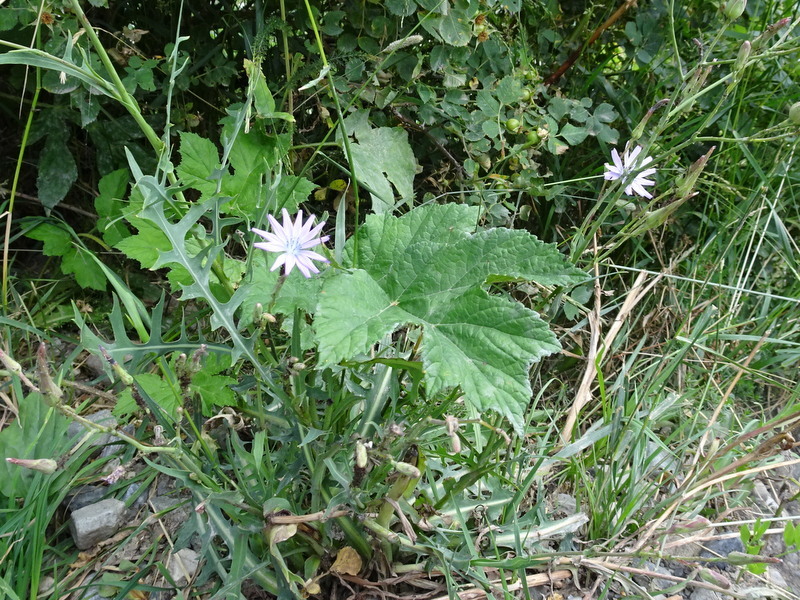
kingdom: Plantae
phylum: Tracheophyta
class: Magnoliopsida
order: Asterales
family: Asteraceae
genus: Lactuca
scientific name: Lactuca perennis
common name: Mountain lettuce
